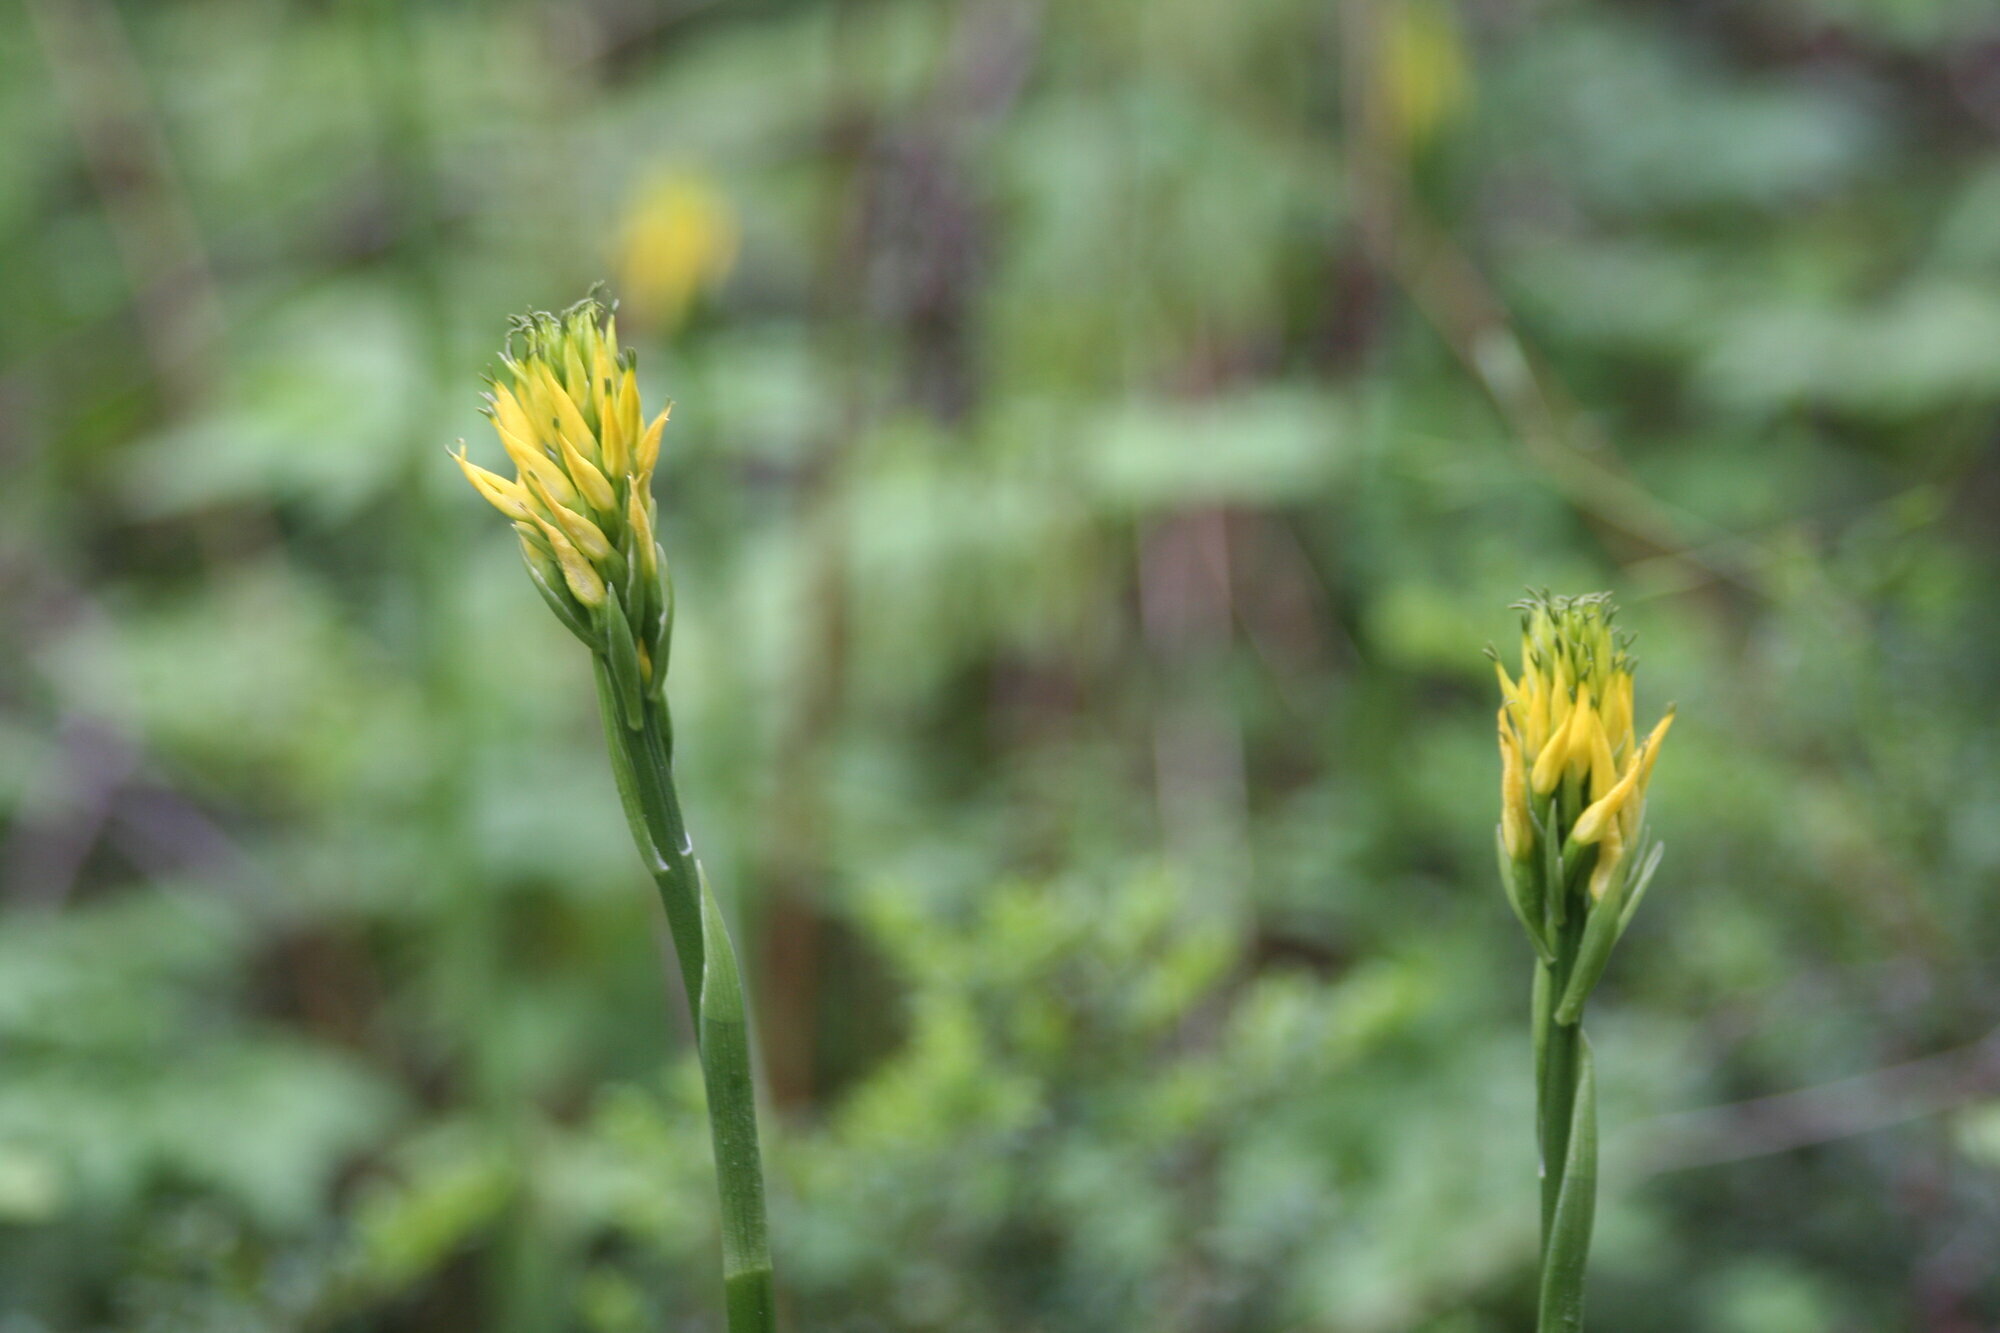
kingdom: Plantae
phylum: Tracheophyta
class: Liliopsida
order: Asparagales
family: Orchidaceae
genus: Gavilea
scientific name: Gavilea lutea
